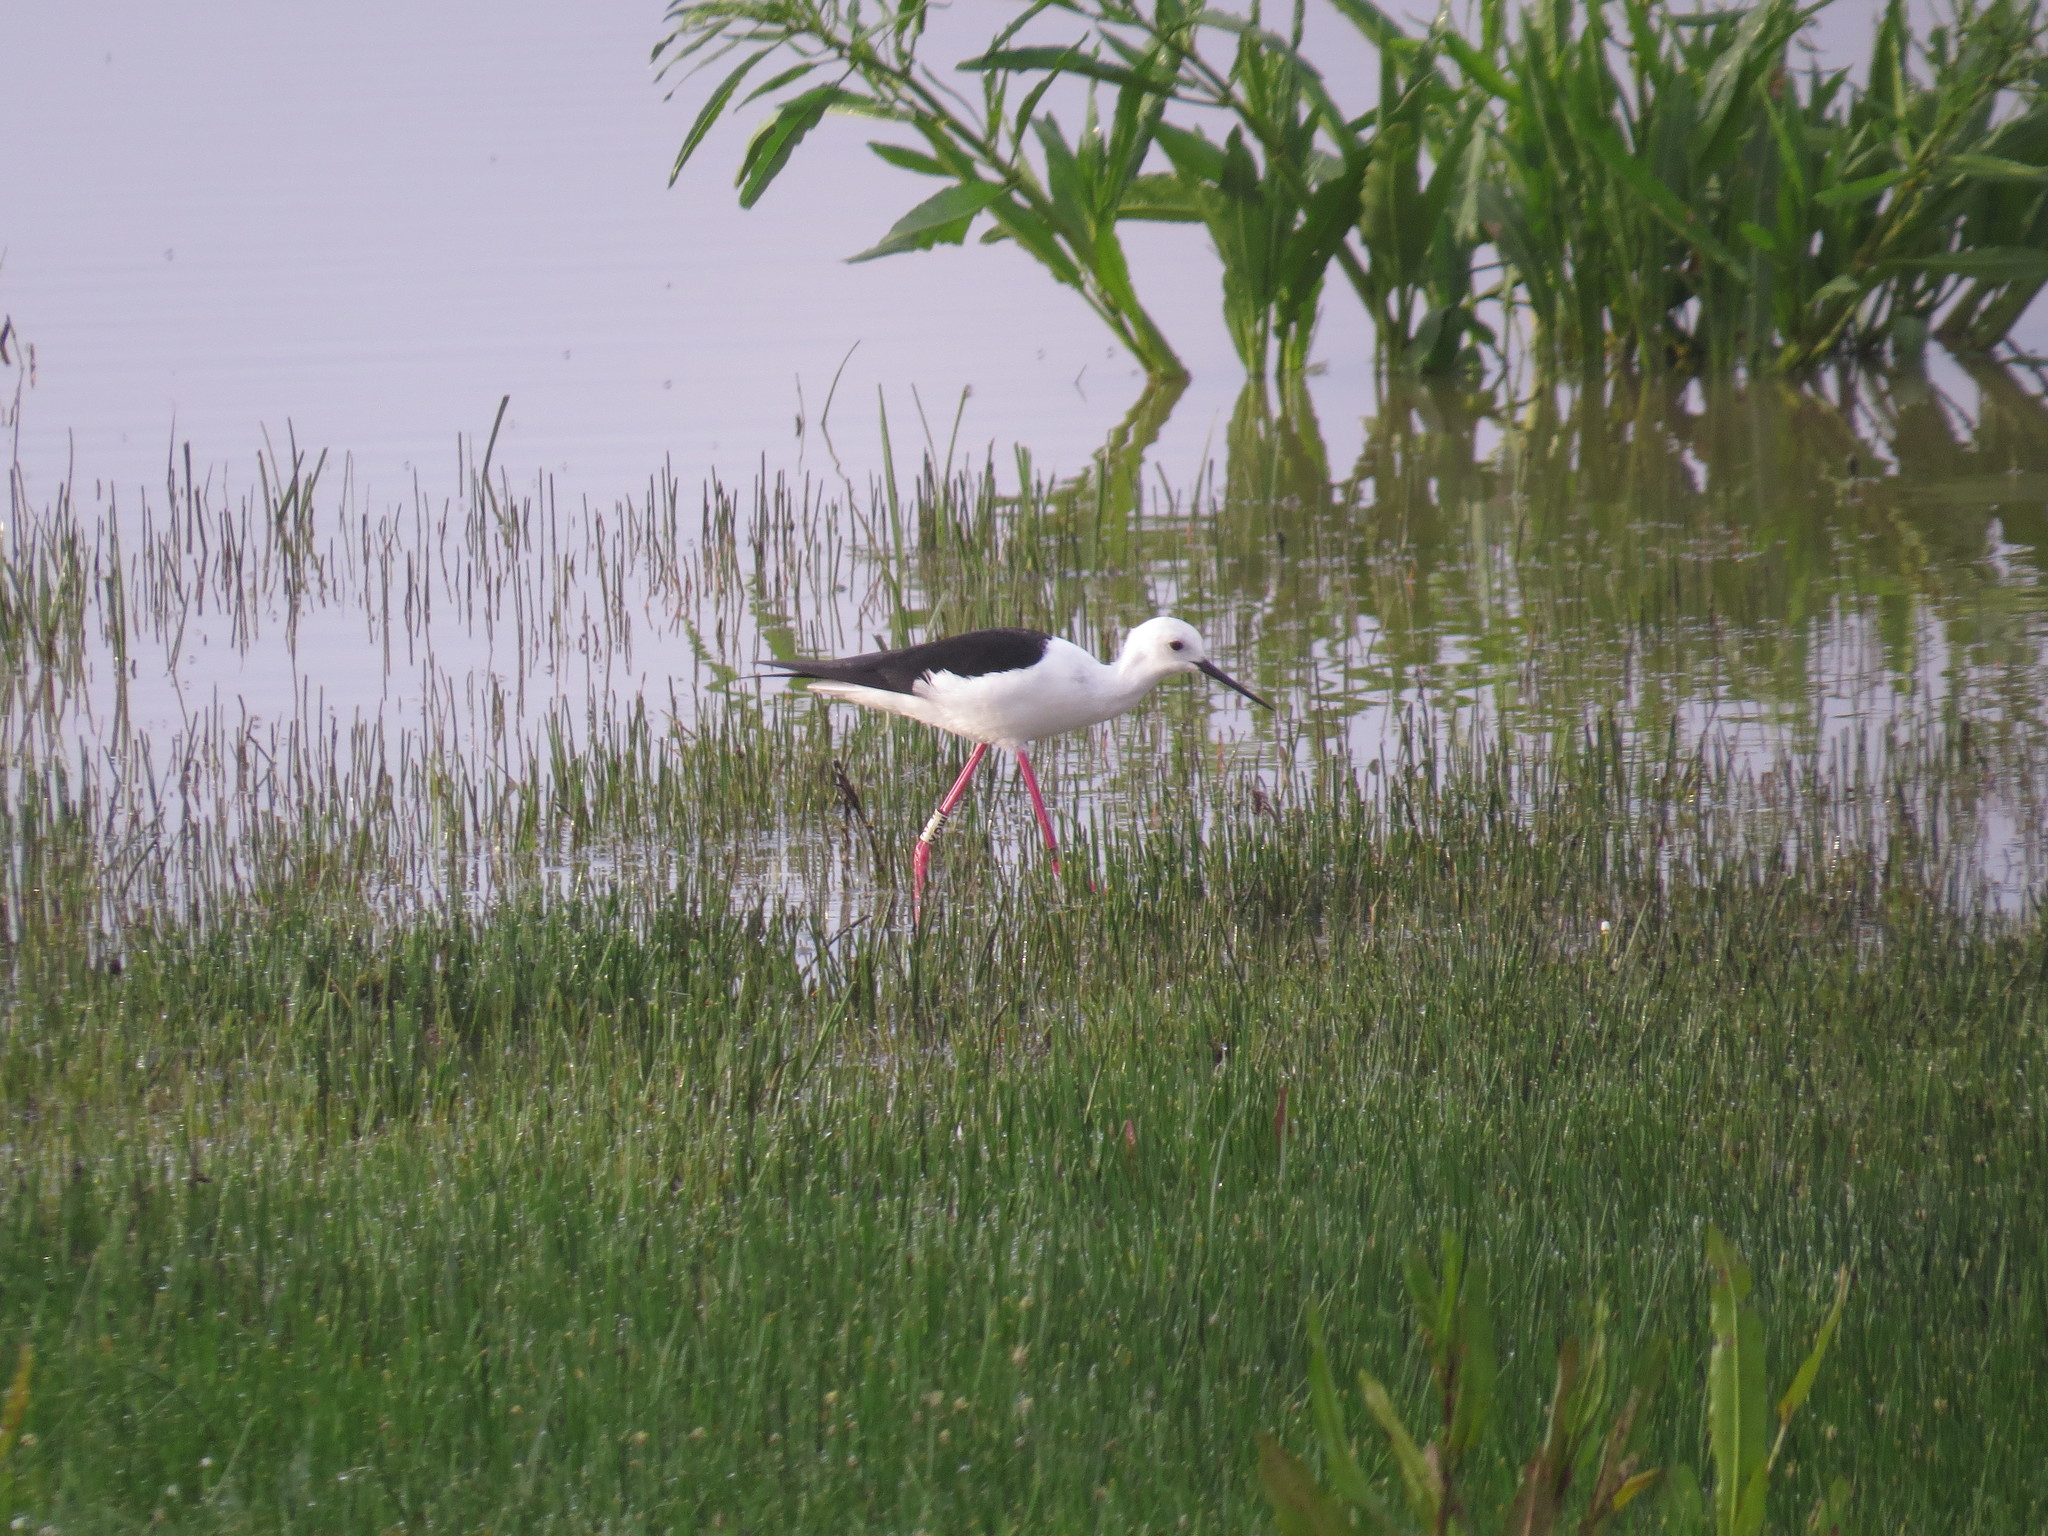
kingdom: Animalia
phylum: Chordata
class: Aves
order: Charadriiformes
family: Recurvirostridae
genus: Himantopus
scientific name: Himantopus himantopus
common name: Black-winged stilt
